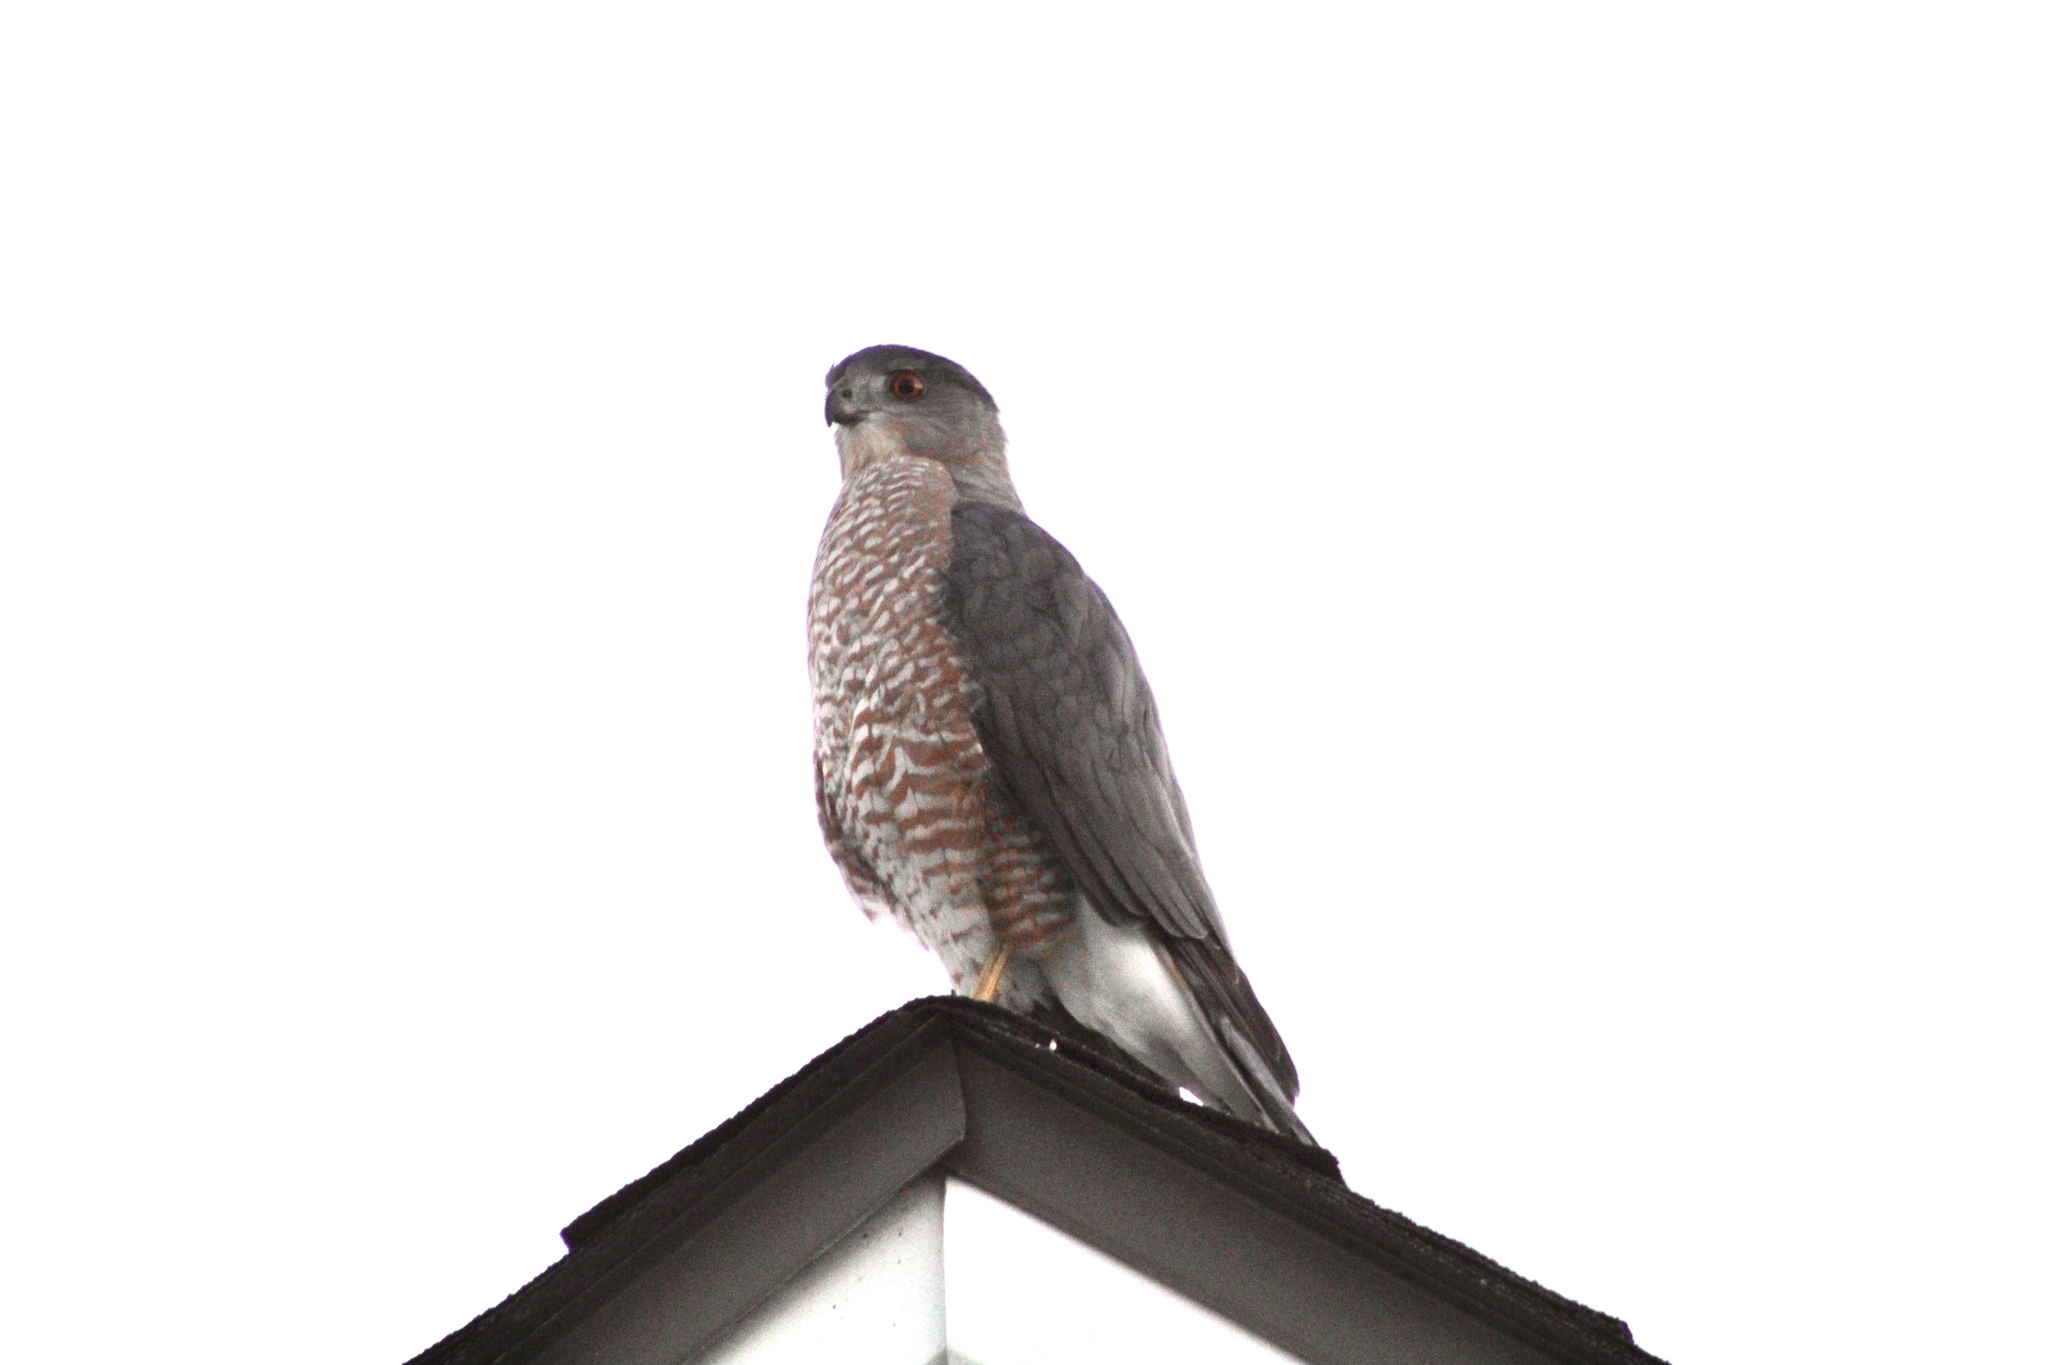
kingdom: Animalia
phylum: Chordata
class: Aves
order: Accipitriformes
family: Accipitridae
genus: Accipiter
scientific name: Accipiter cooperii
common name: Cooper's hawk
